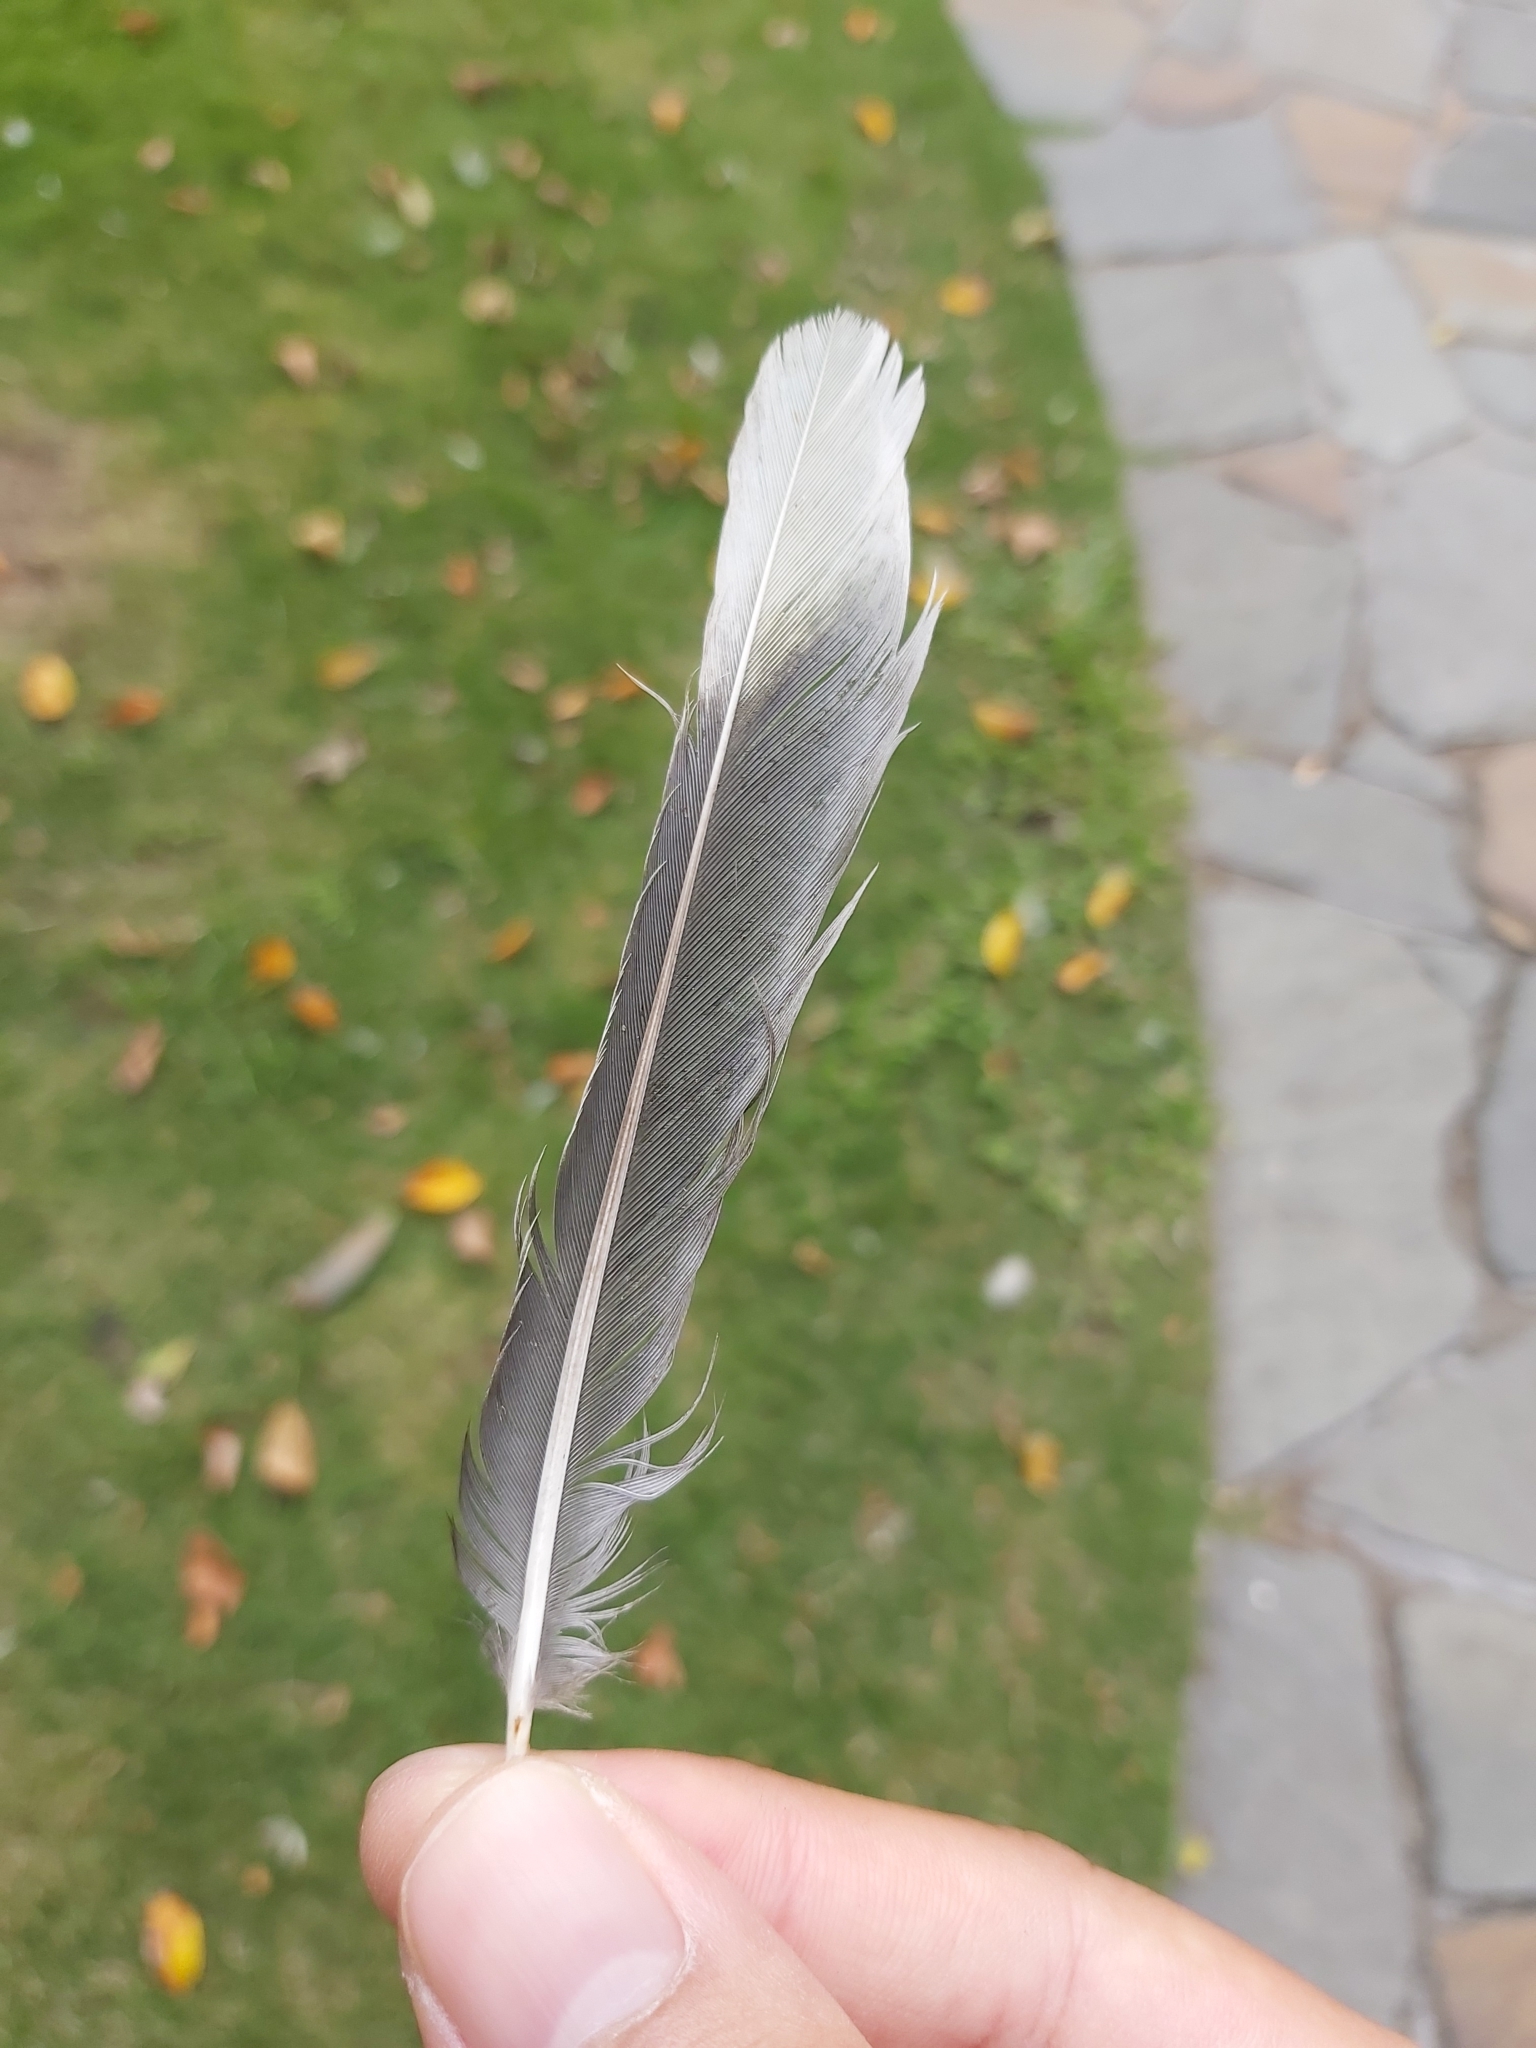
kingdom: Animalia
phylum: Chordata
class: Aves
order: Passeriformes
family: Oriolidae
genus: Sphecotheres
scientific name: Sphecotheres vieilloti
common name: Australasian figbird
